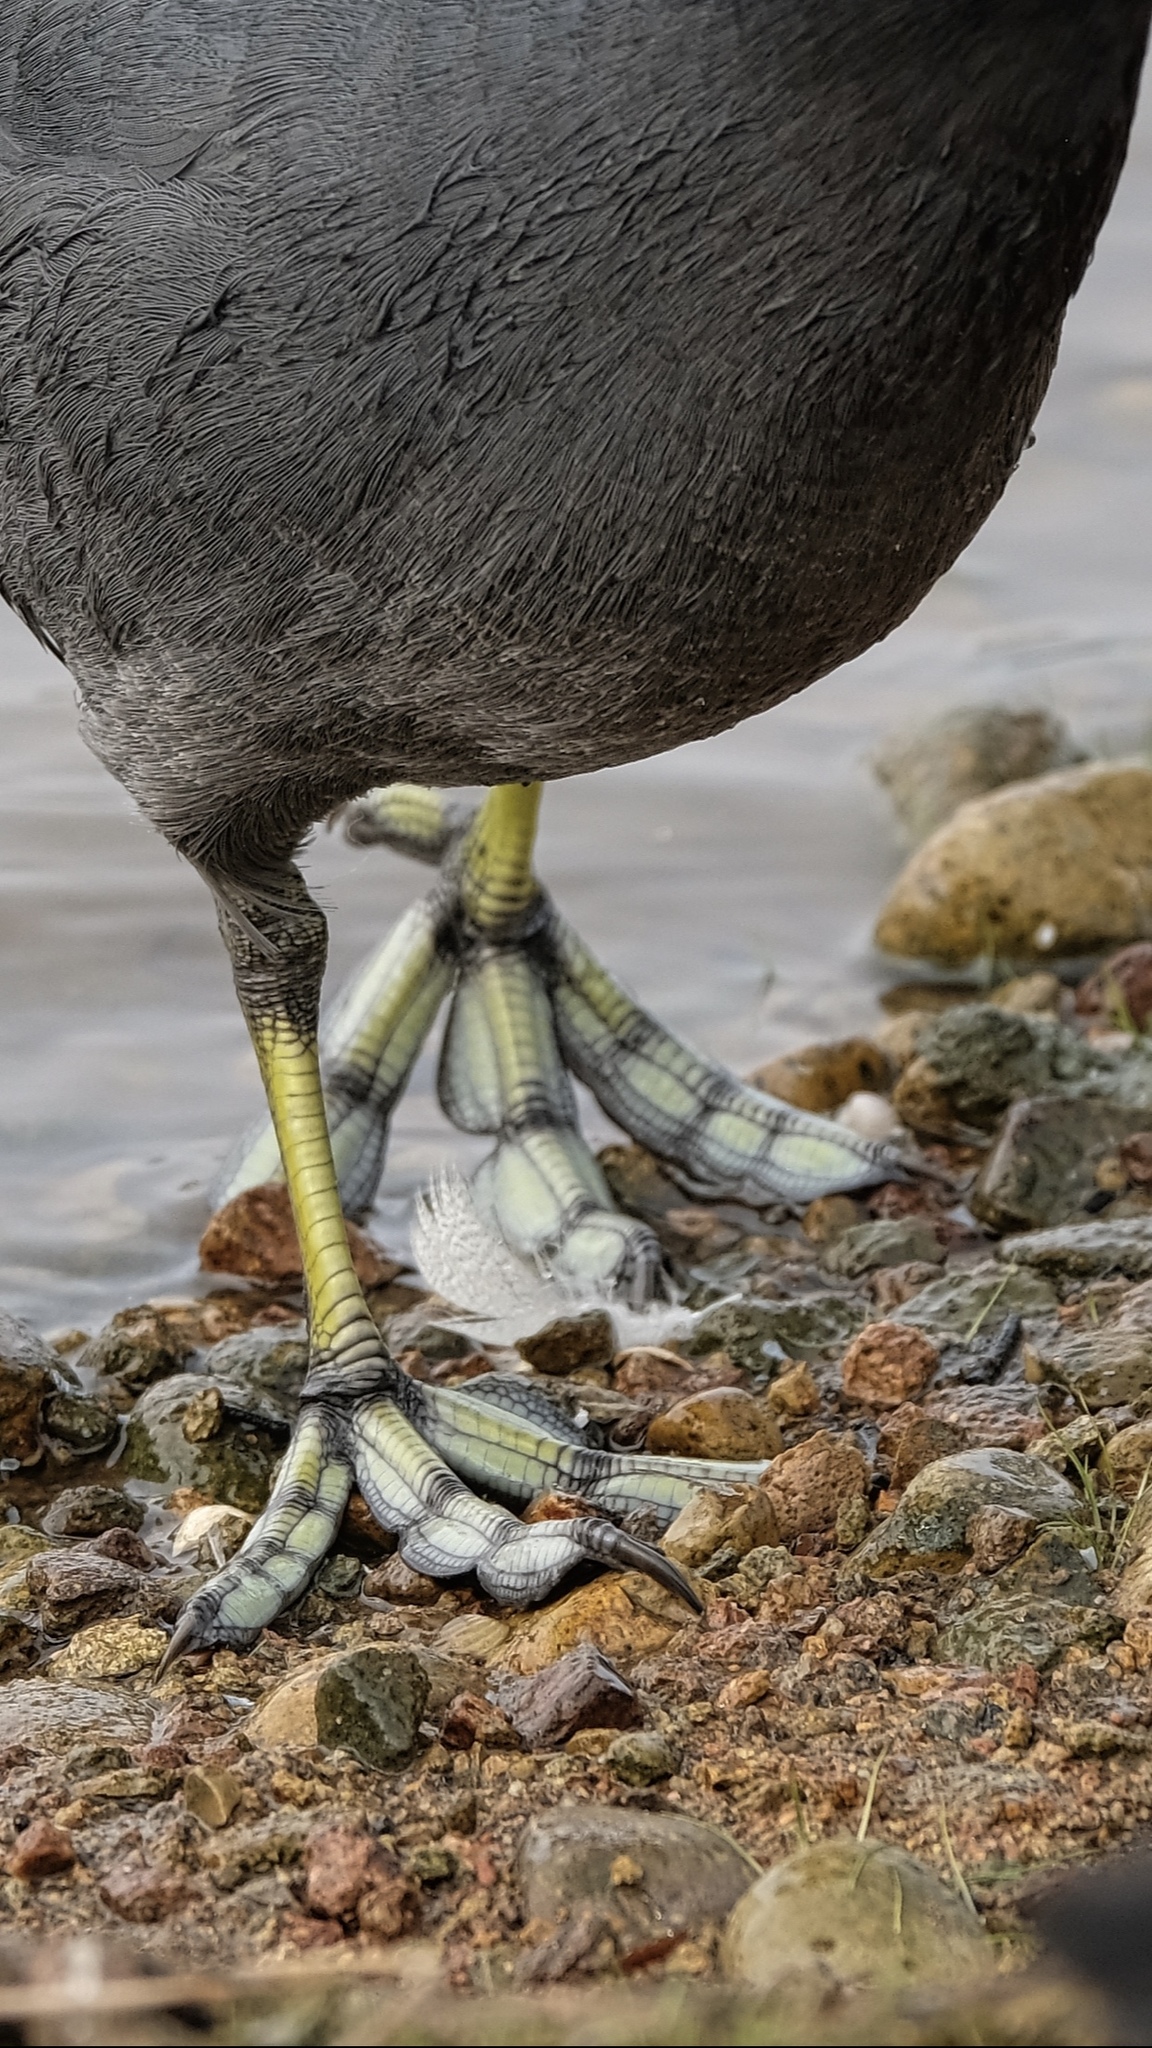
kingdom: Animalia
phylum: Chordata
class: Aves
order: Gruiformes
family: Rallidae
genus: Fulica
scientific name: Fulica americana
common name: American coot
